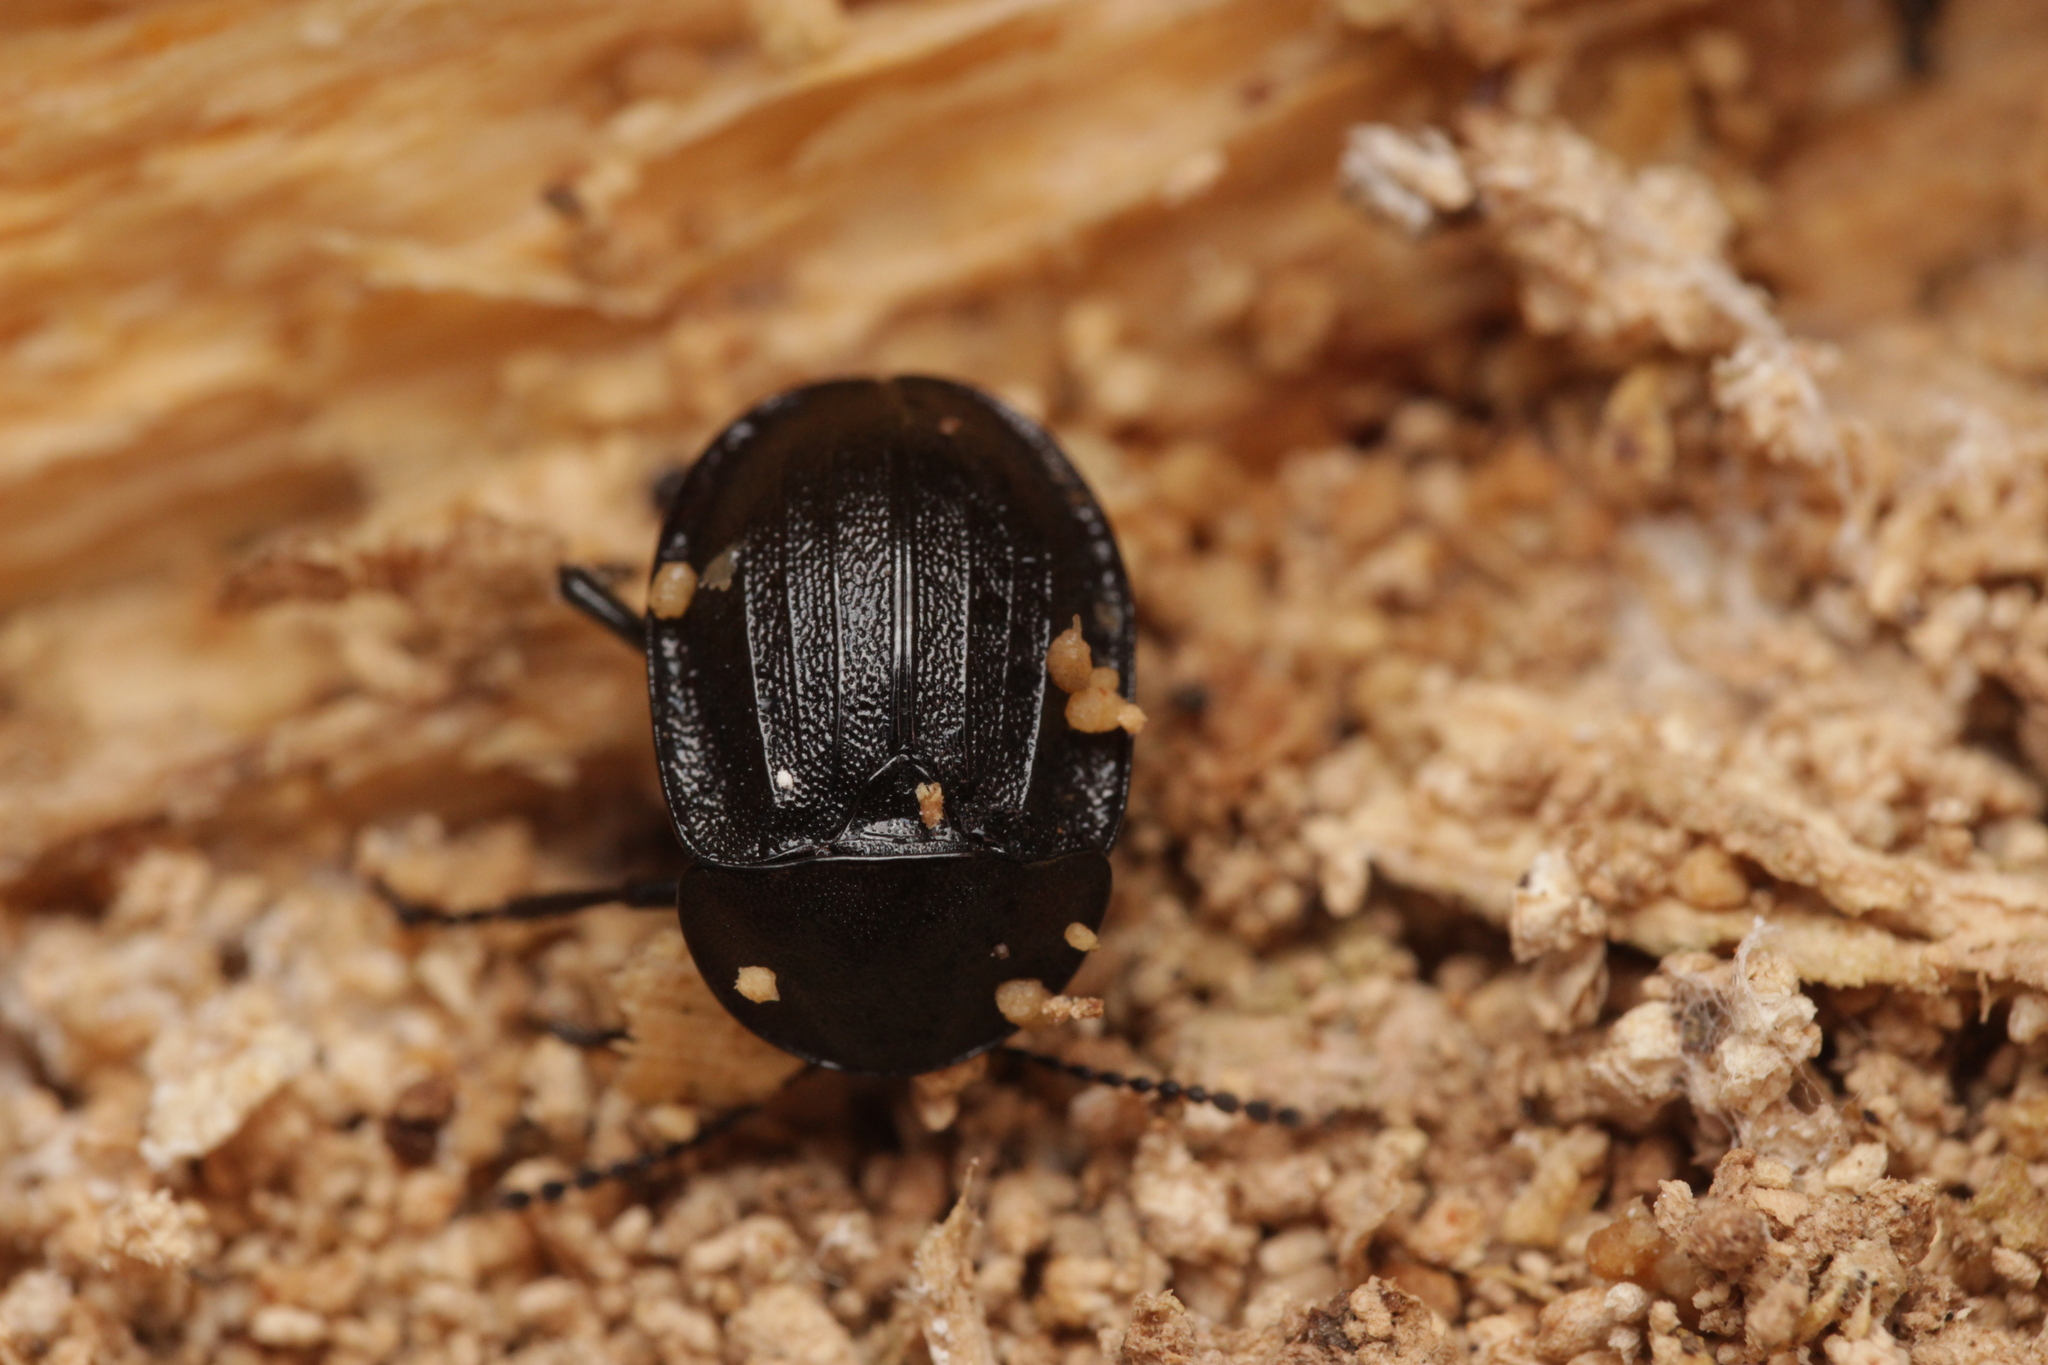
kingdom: Animalia
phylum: Arthropoda
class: Insecta
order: Coleoptera
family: Staphylinidae
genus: Silpha
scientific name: Silpha atrata
